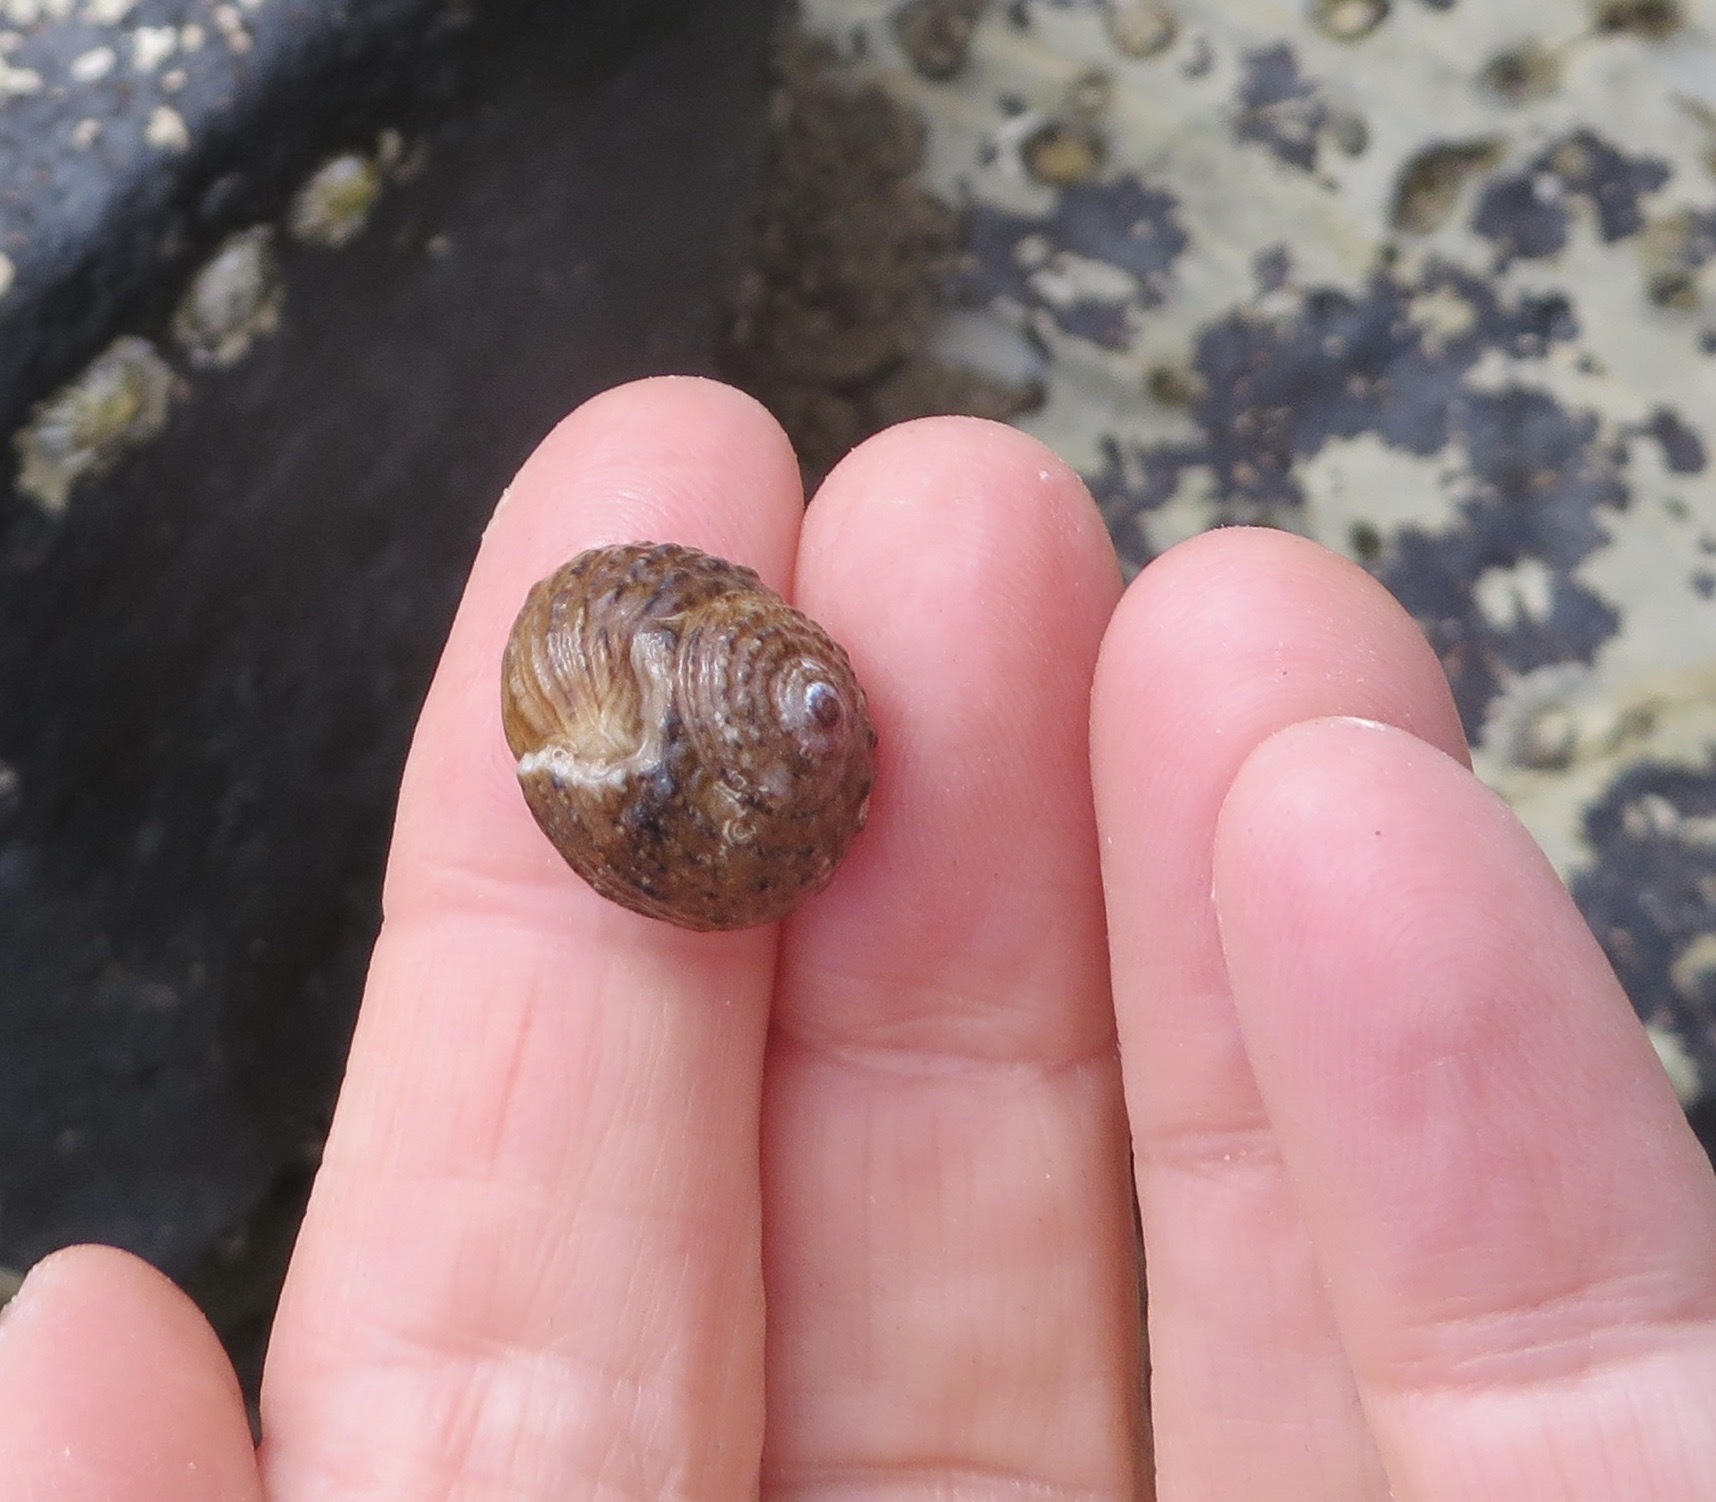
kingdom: Animalia
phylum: Mollusca
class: Gastropoda
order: Trochida
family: Tegulidae
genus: Tegula
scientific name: Tegula eiseni
